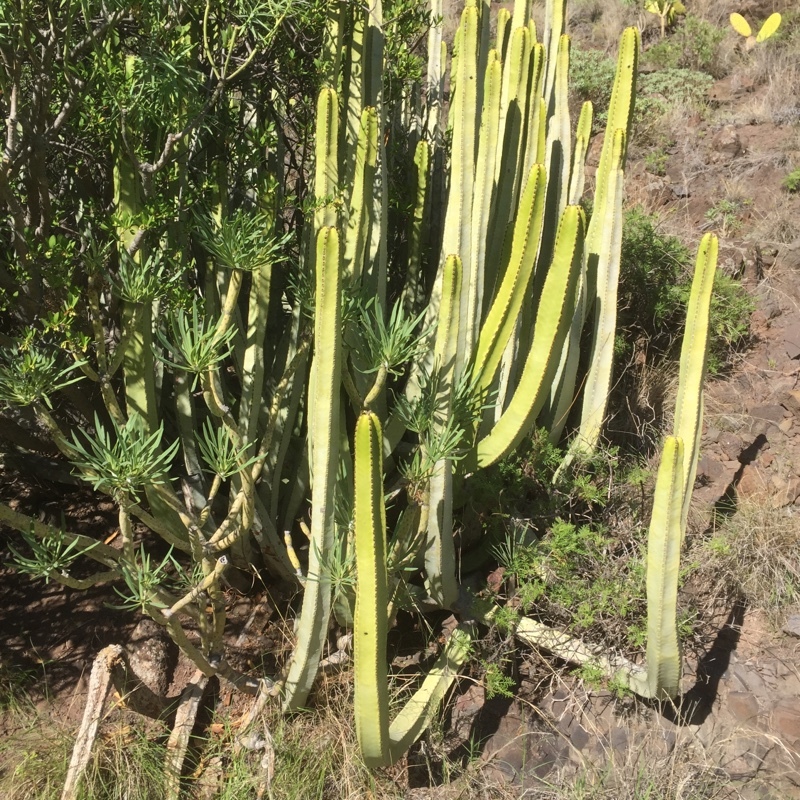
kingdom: Plantae
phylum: Tracheophyta
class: Magnoliopsida
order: Malpighiales
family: Euphorbiaceae
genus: Euphorbia
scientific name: Euphorbia canariensis
